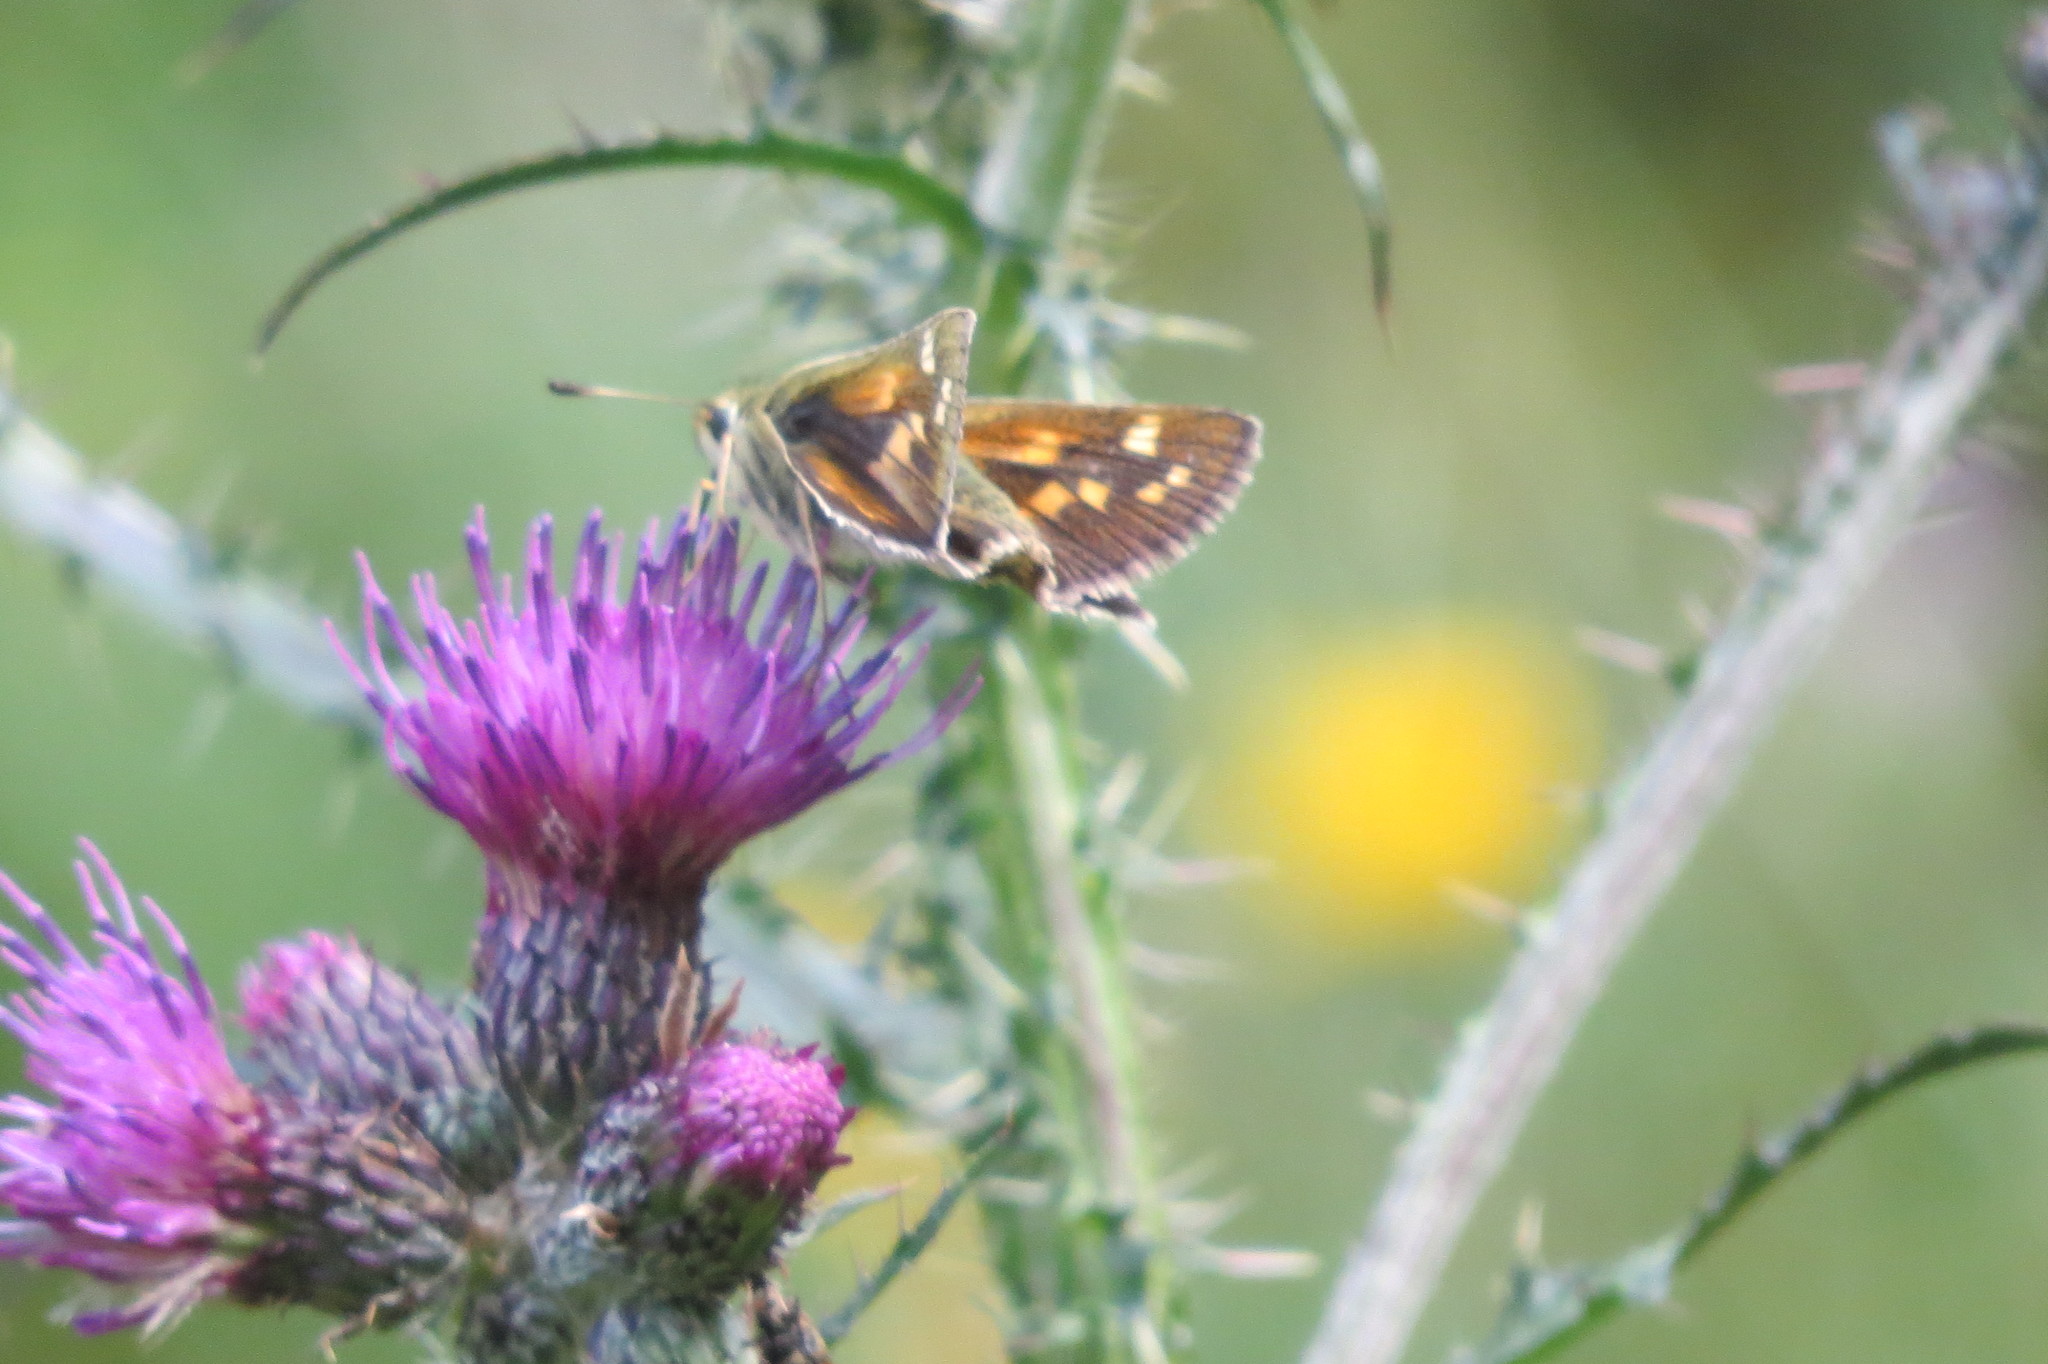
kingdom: Animalia
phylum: Arthropoda
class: Insecta
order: Lepidoptera
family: Hesperiidae
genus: Hesperia
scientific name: Hesperia comma
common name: Common branded skipper
